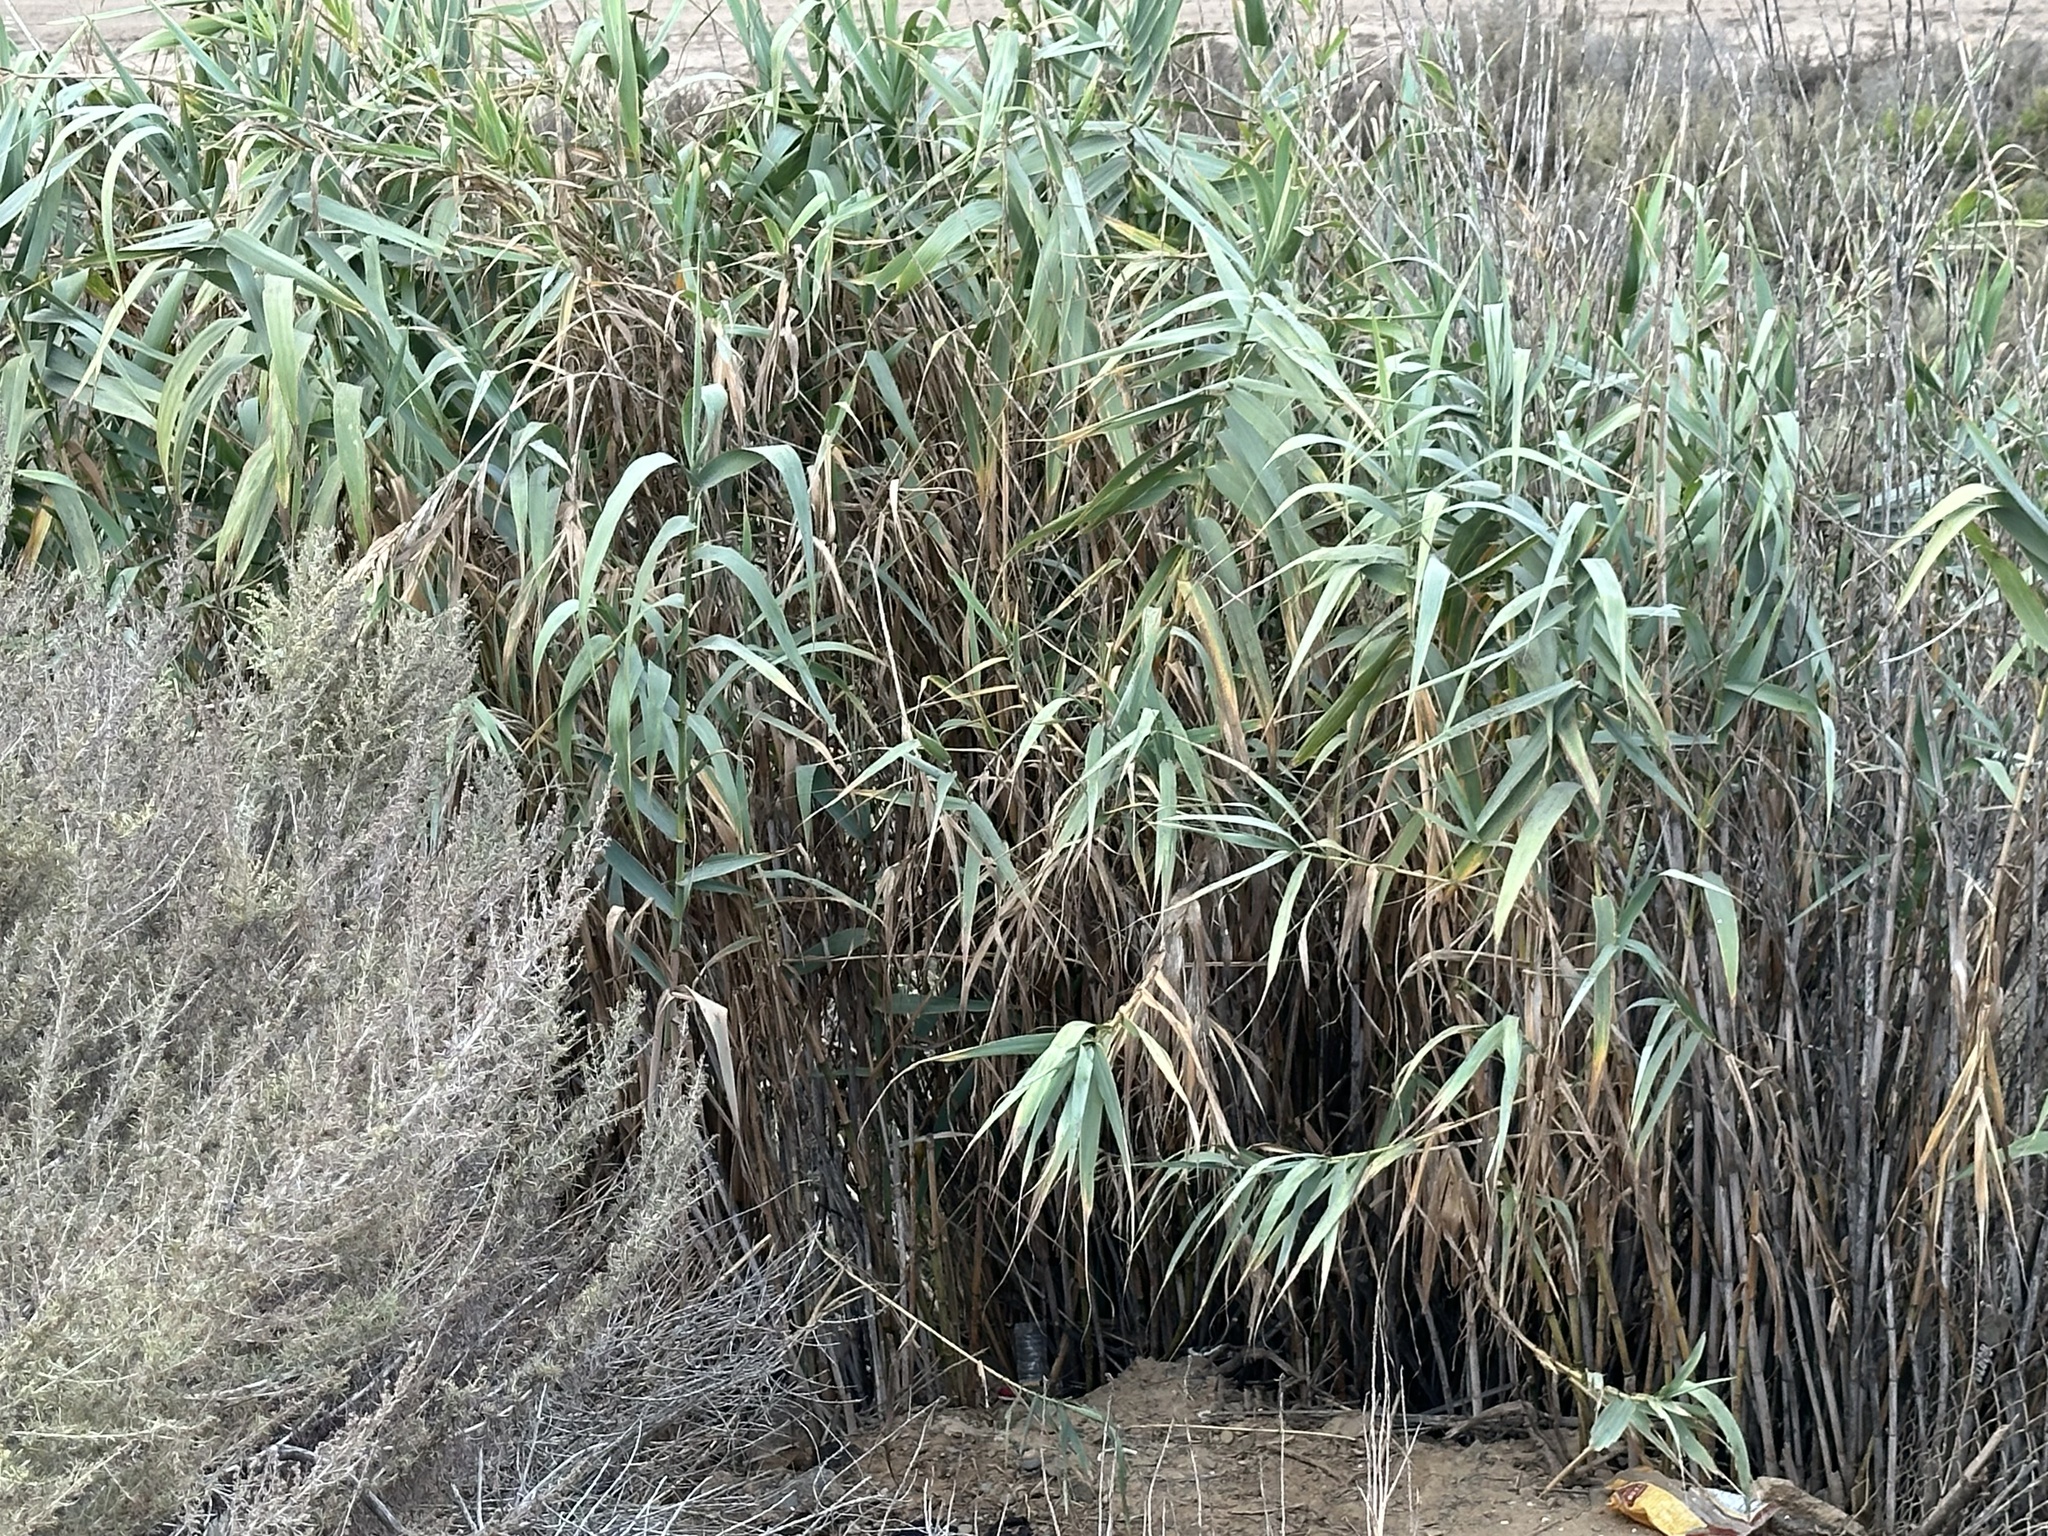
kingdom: Plantae
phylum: Tracheophyta
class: Liliopsida
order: Poales
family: Poaceae
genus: Arundo
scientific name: Arundo donax
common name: Giant reed
